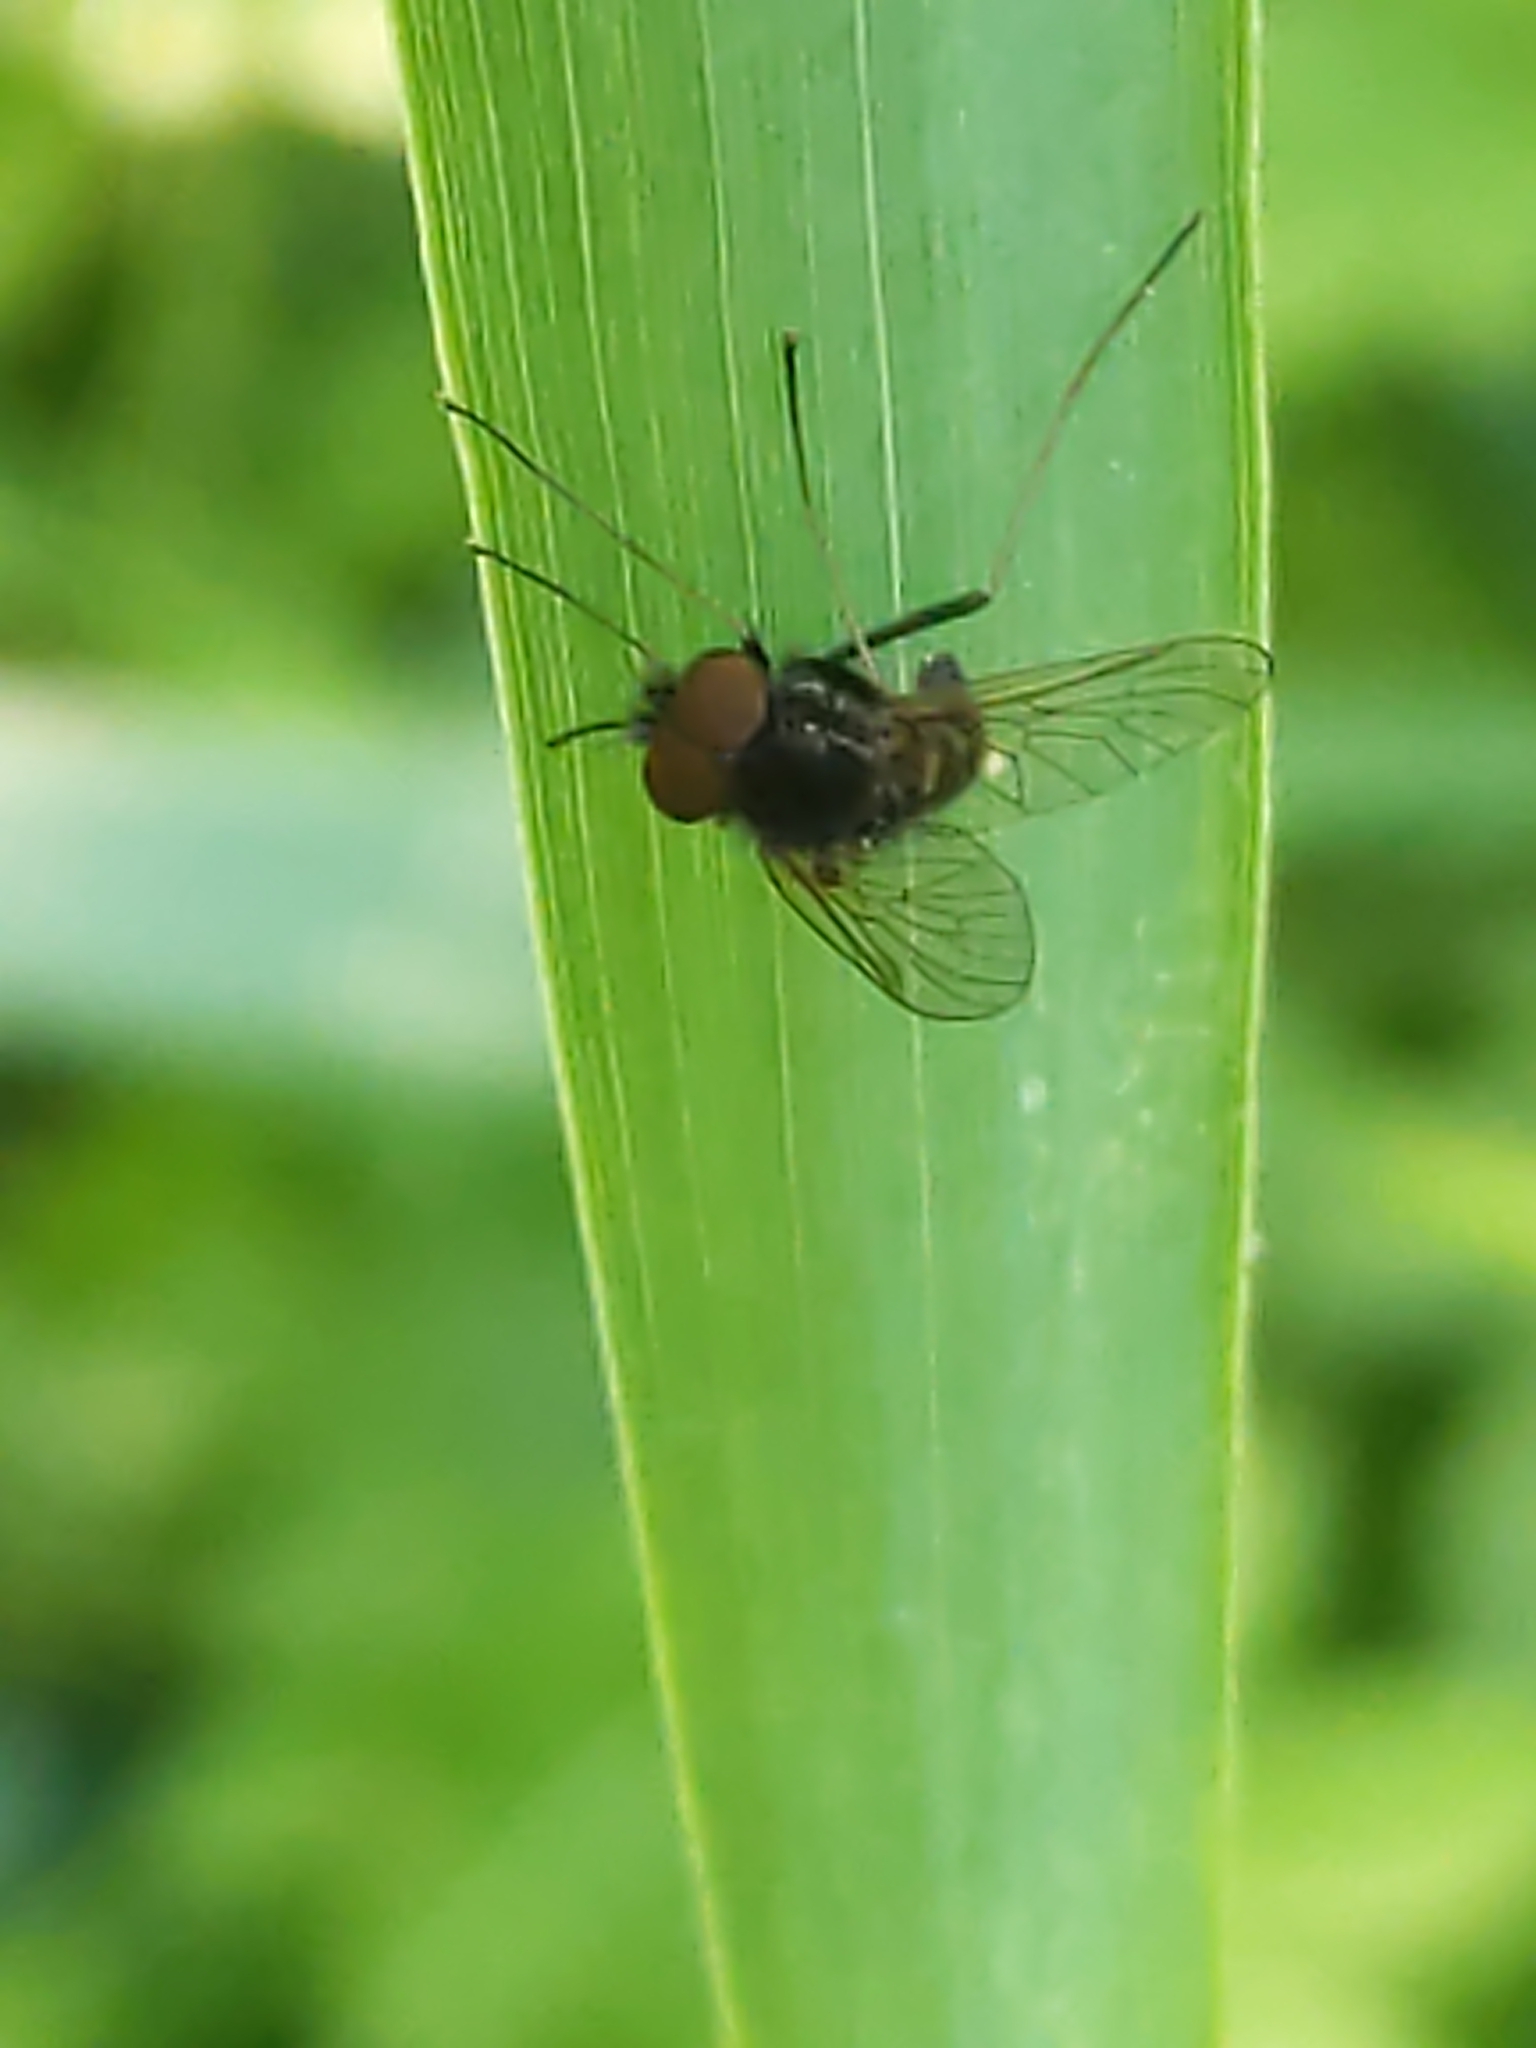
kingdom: Animalia
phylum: Arthropoda
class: Insecta
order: Diptera
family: Rhagionidae
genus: Chrysopilus
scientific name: Chrysopilus proximus
